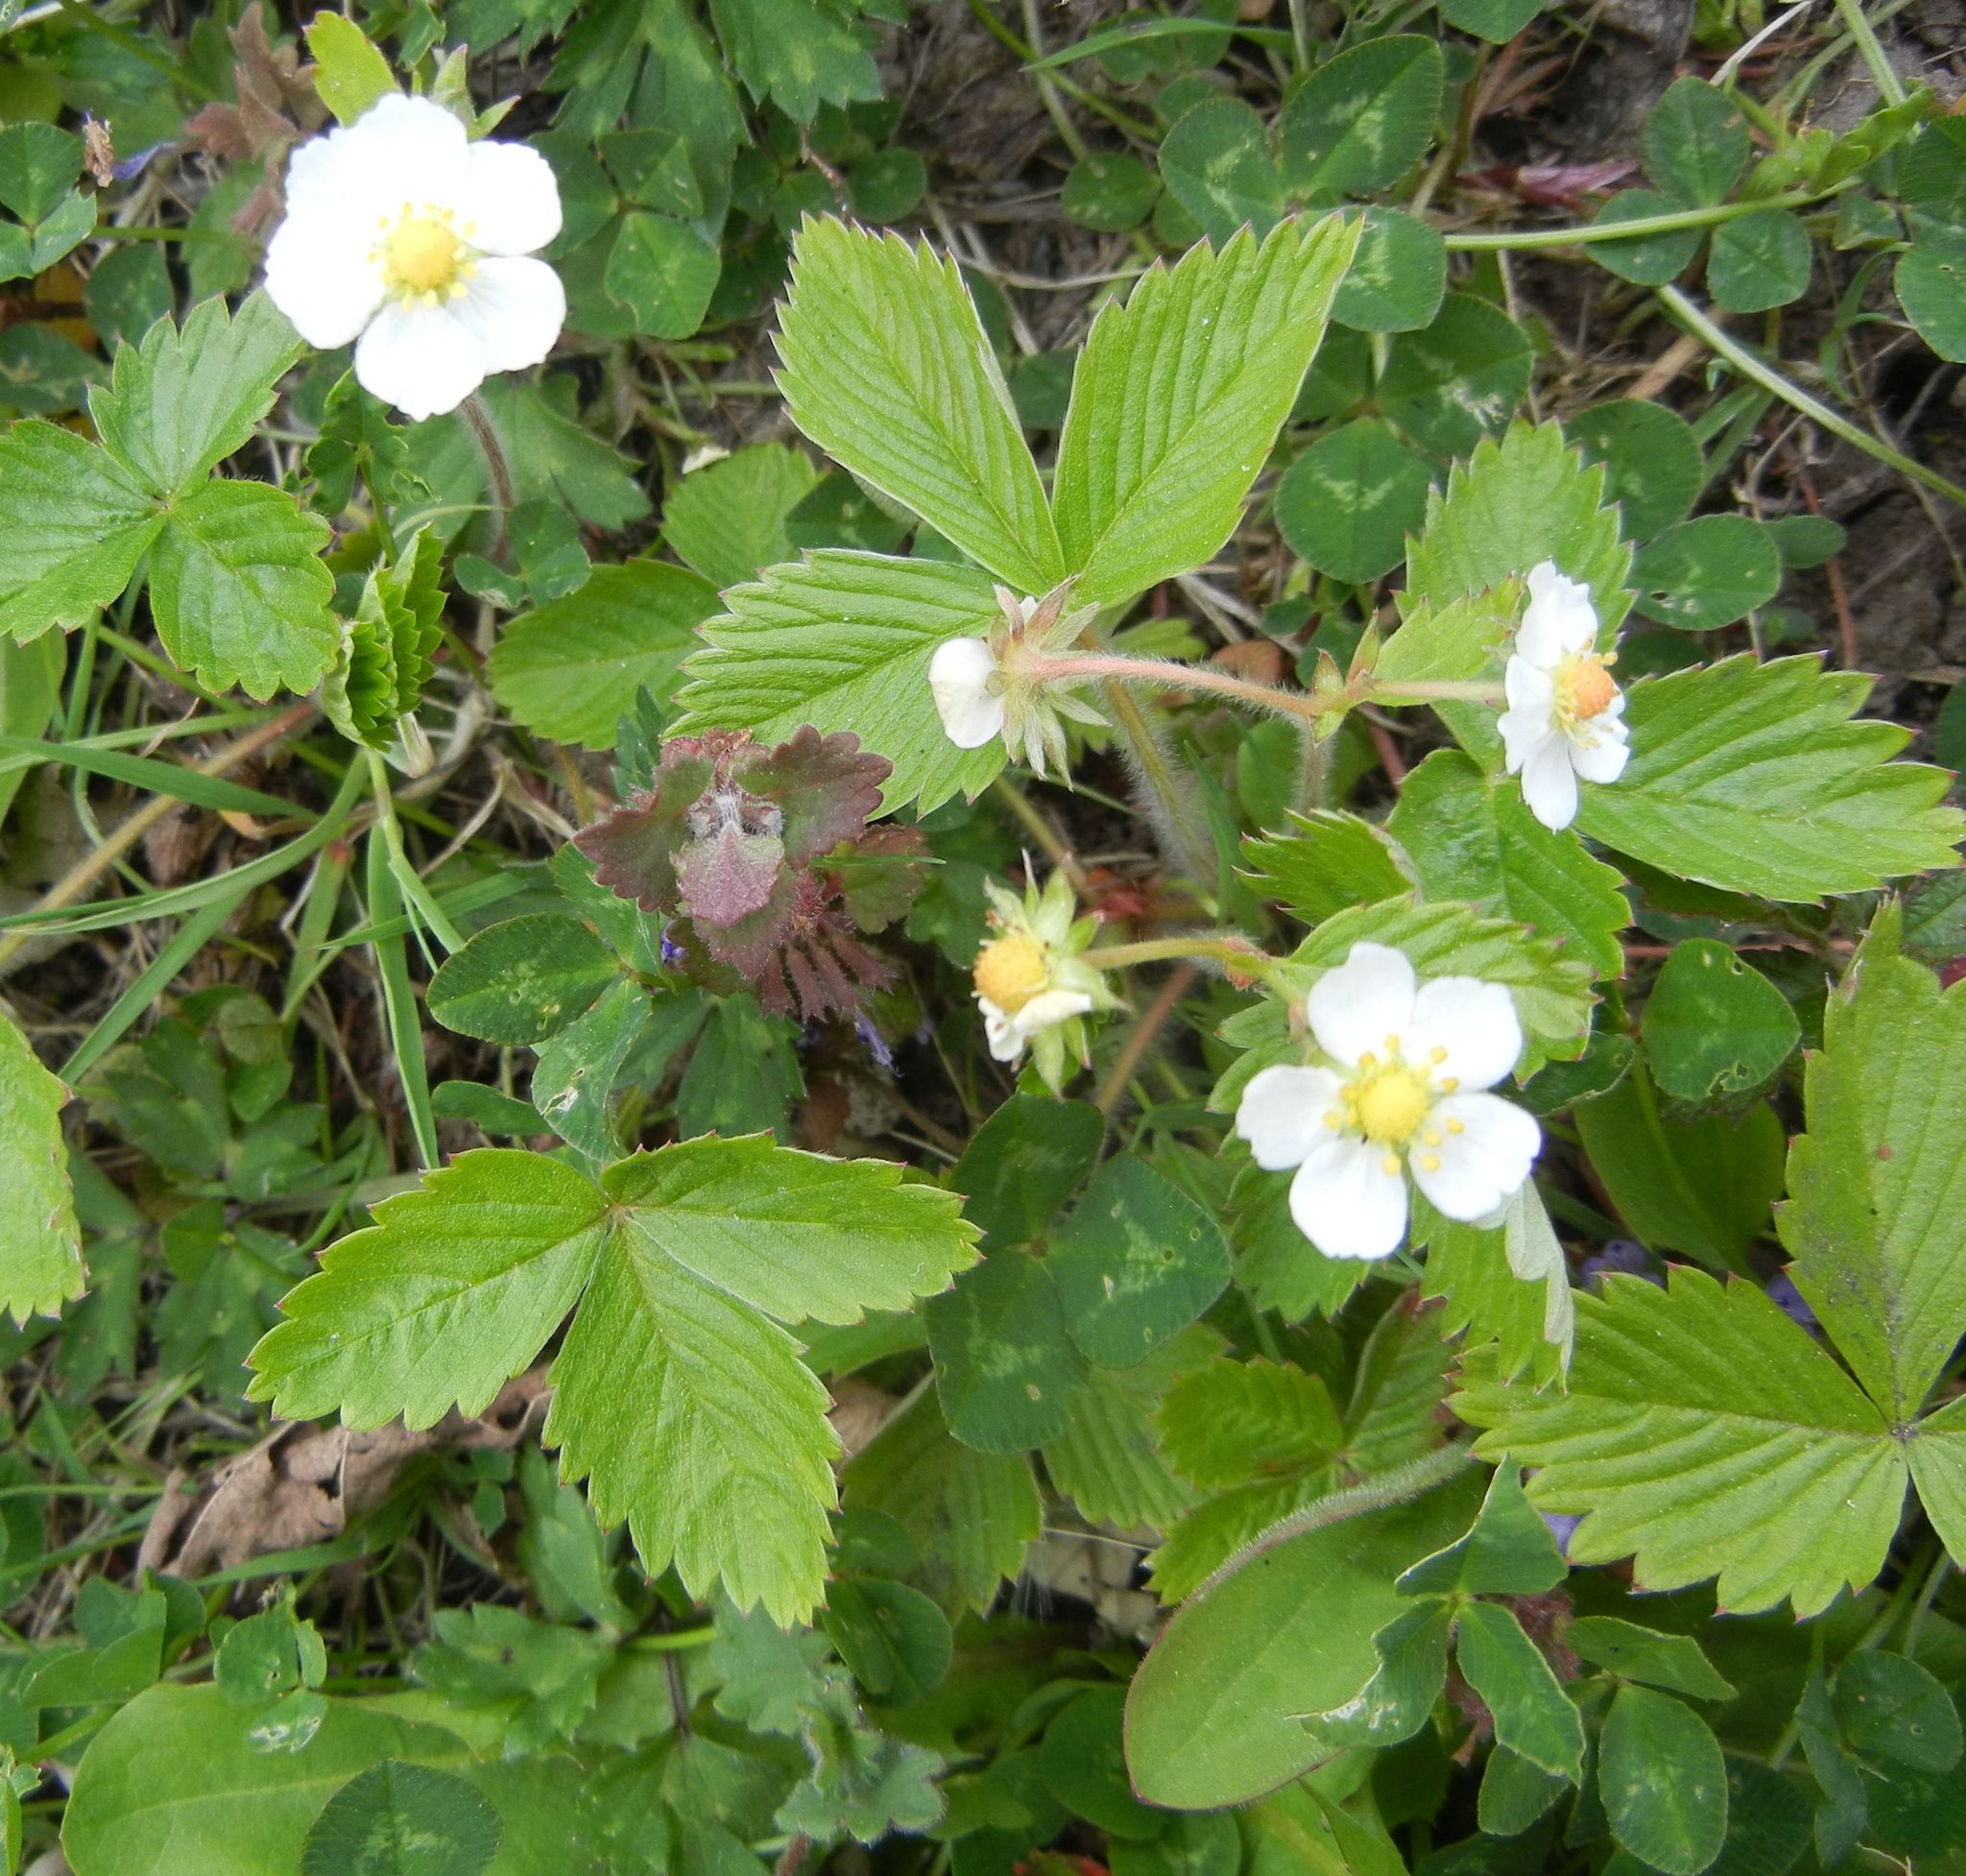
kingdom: Plantae
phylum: Tracheophyta
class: Magnoliopsida
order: Rosales
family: Rosaceae
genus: Fragaria
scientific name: Fragaria vesca
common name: Wild strawberry
